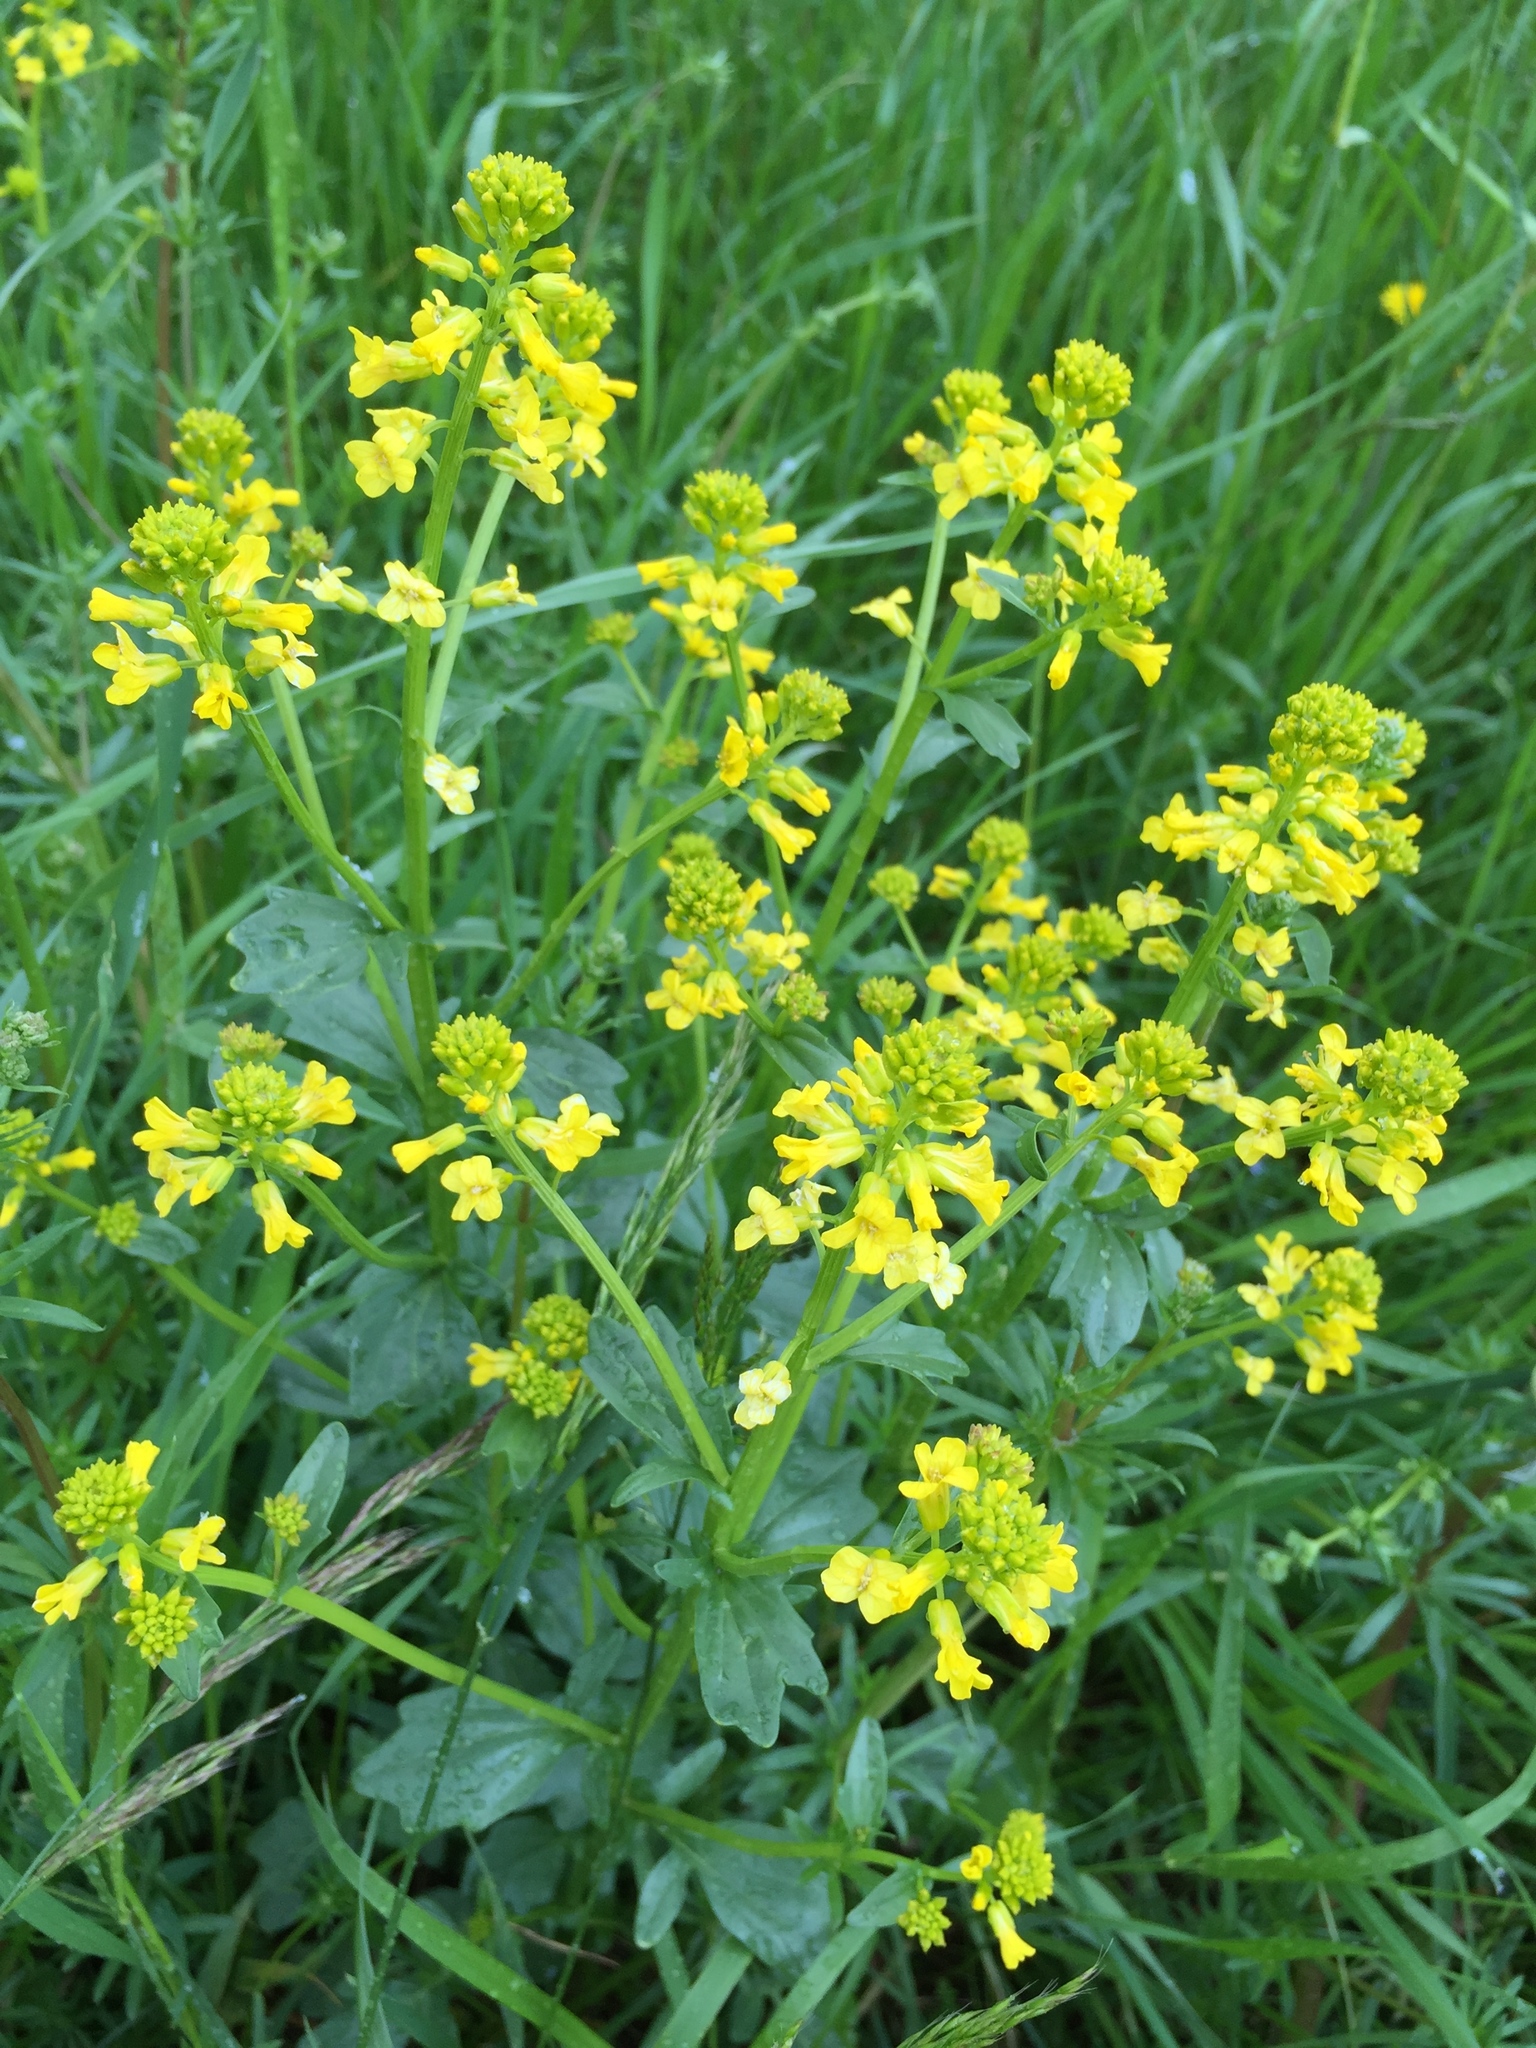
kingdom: Plantae
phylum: Tracheophyta
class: Magnoliopsida
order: Brassicales
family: Brassicaceae
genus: Barbarea
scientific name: Barbarea vulgaris
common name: Cressy-greens
